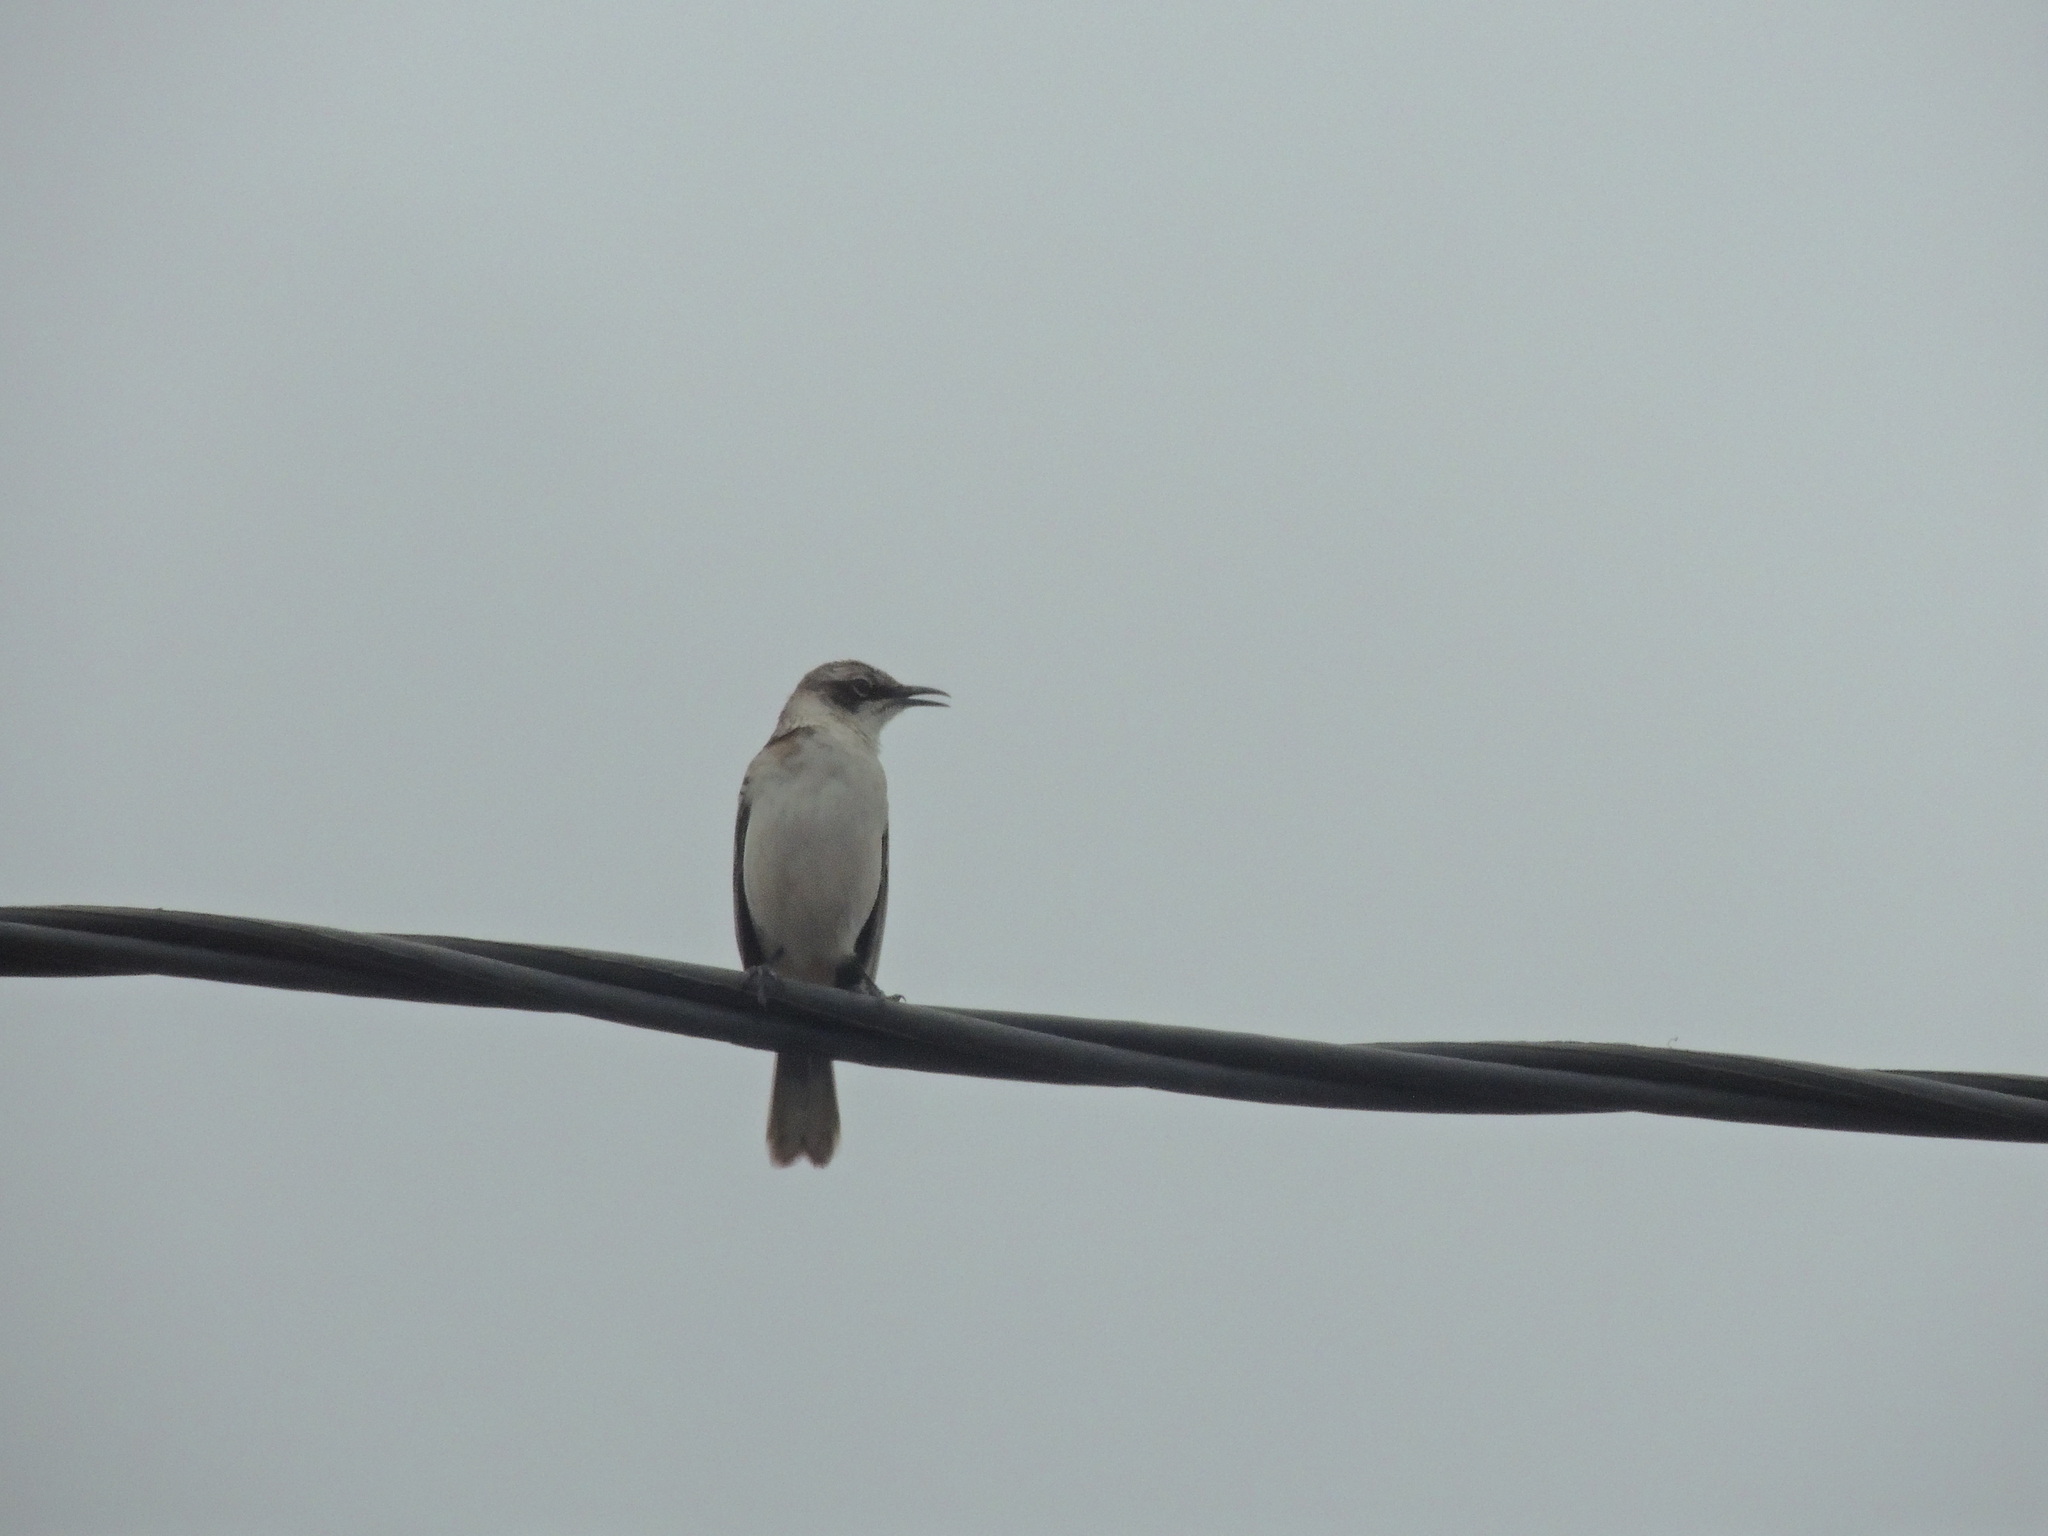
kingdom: Animalia
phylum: Chordata
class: Aves
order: Passeriformes
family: Mimidae
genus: Mimus
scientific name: Mimus parvulus
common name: Galapagos mockingbird
